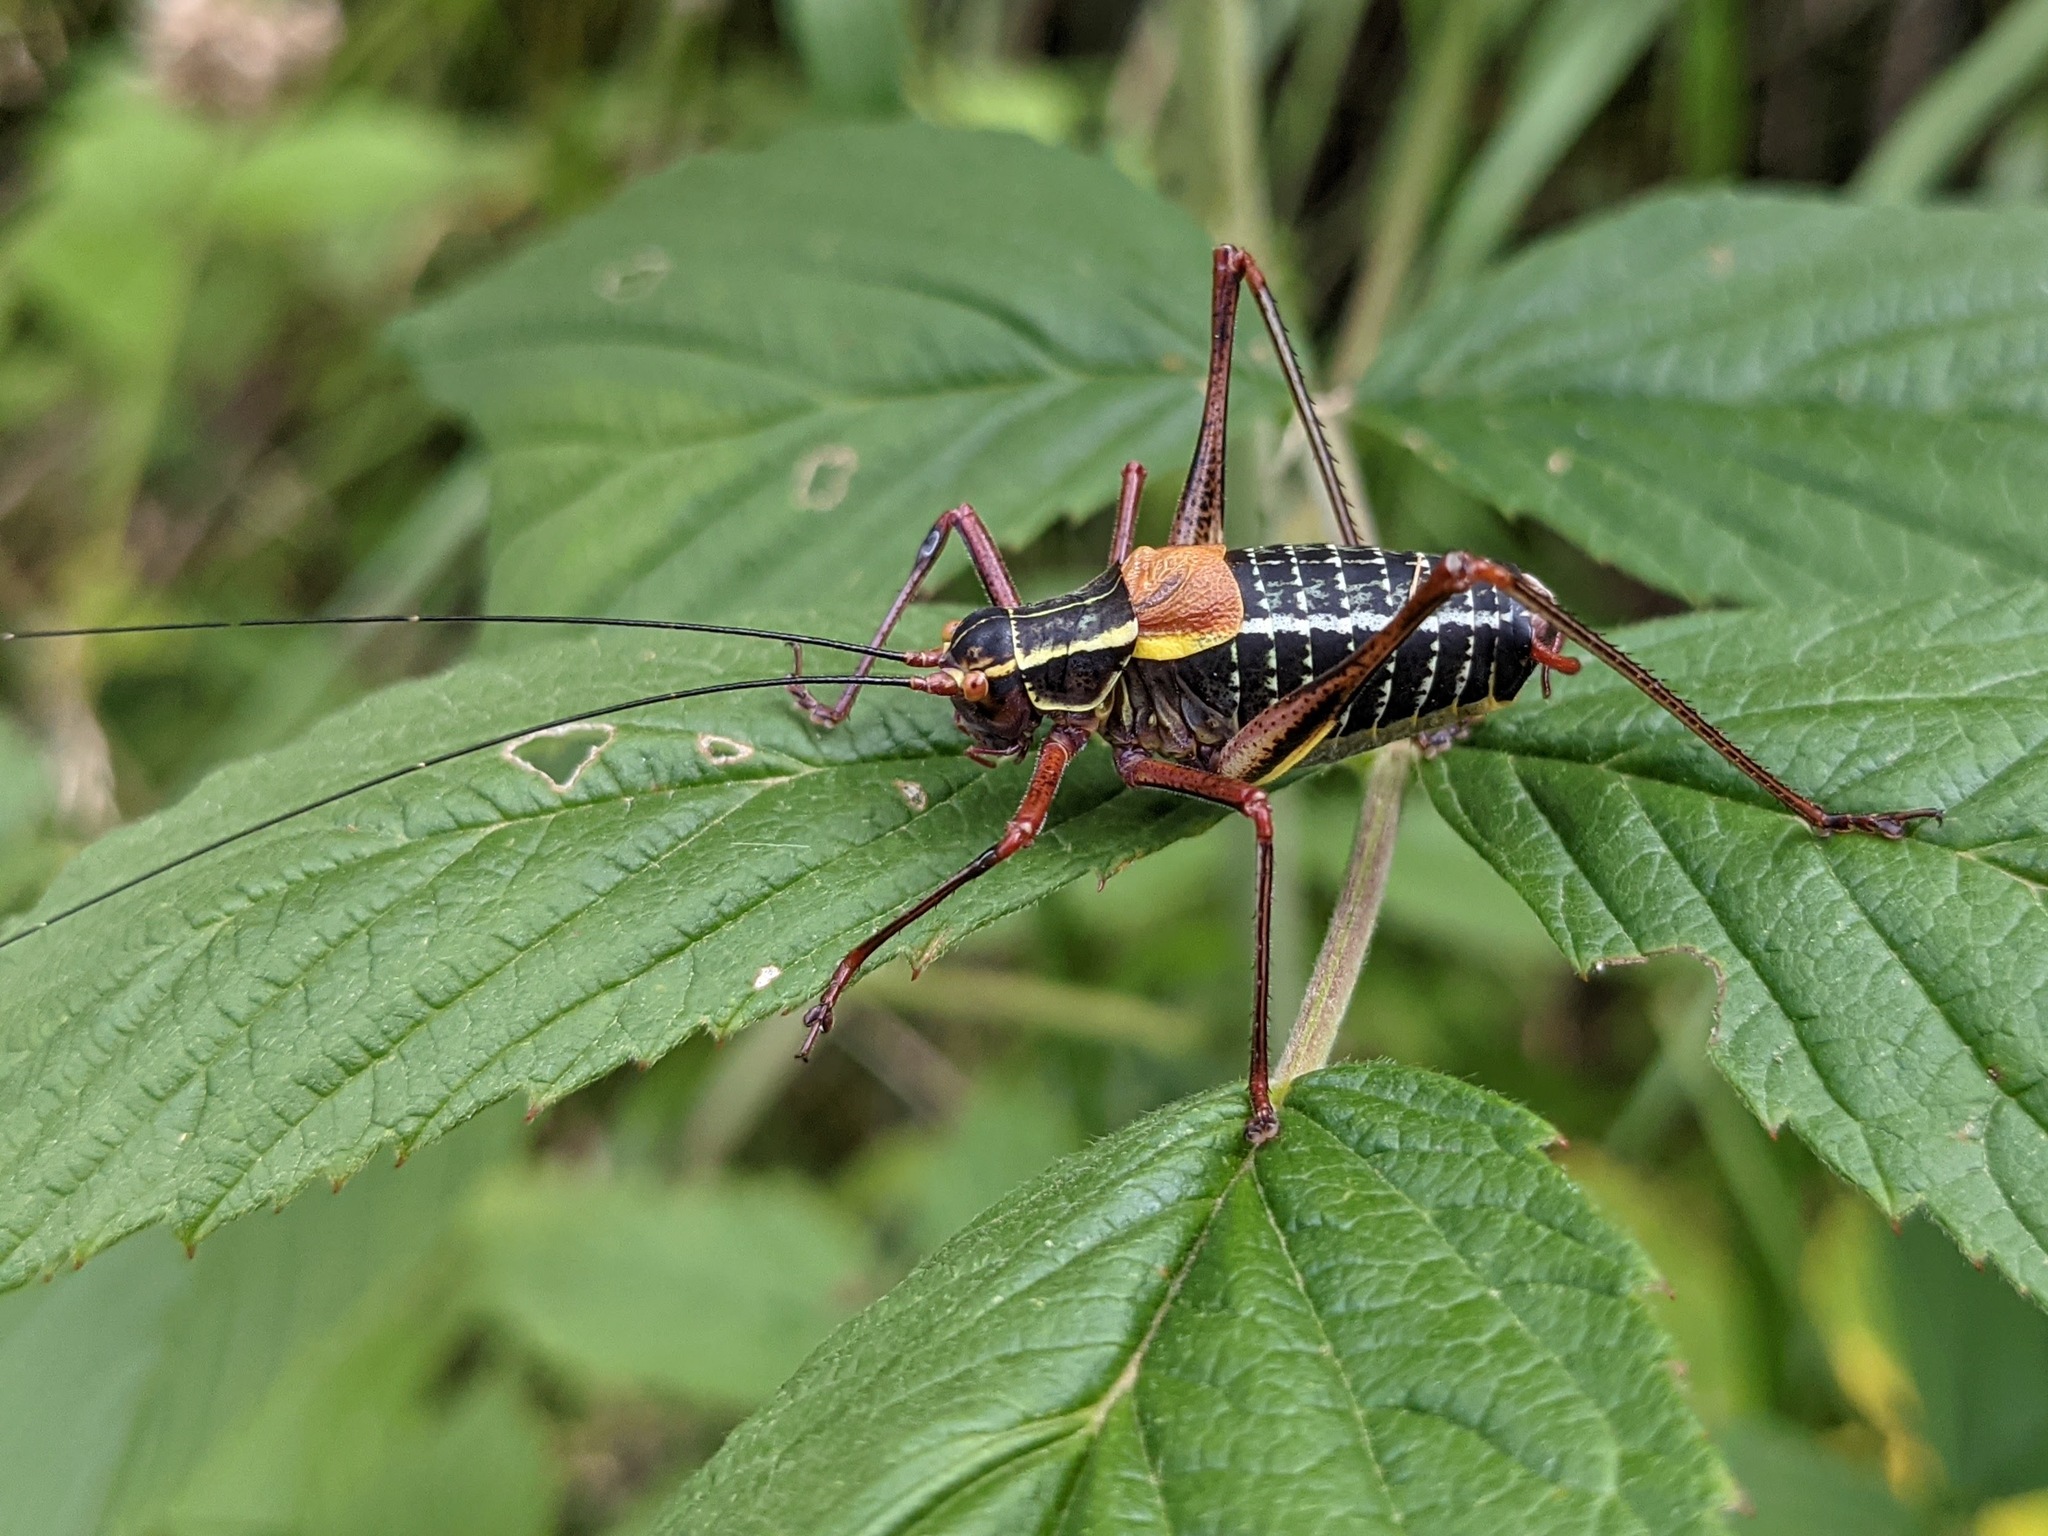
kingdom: Animalia
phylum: Arthropoda
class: Insecta
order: Orthoptera
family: Tettigoniidae
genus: Barbitistes
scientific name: Barbitistes obtusus
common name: Alpine saw bush-cricket
